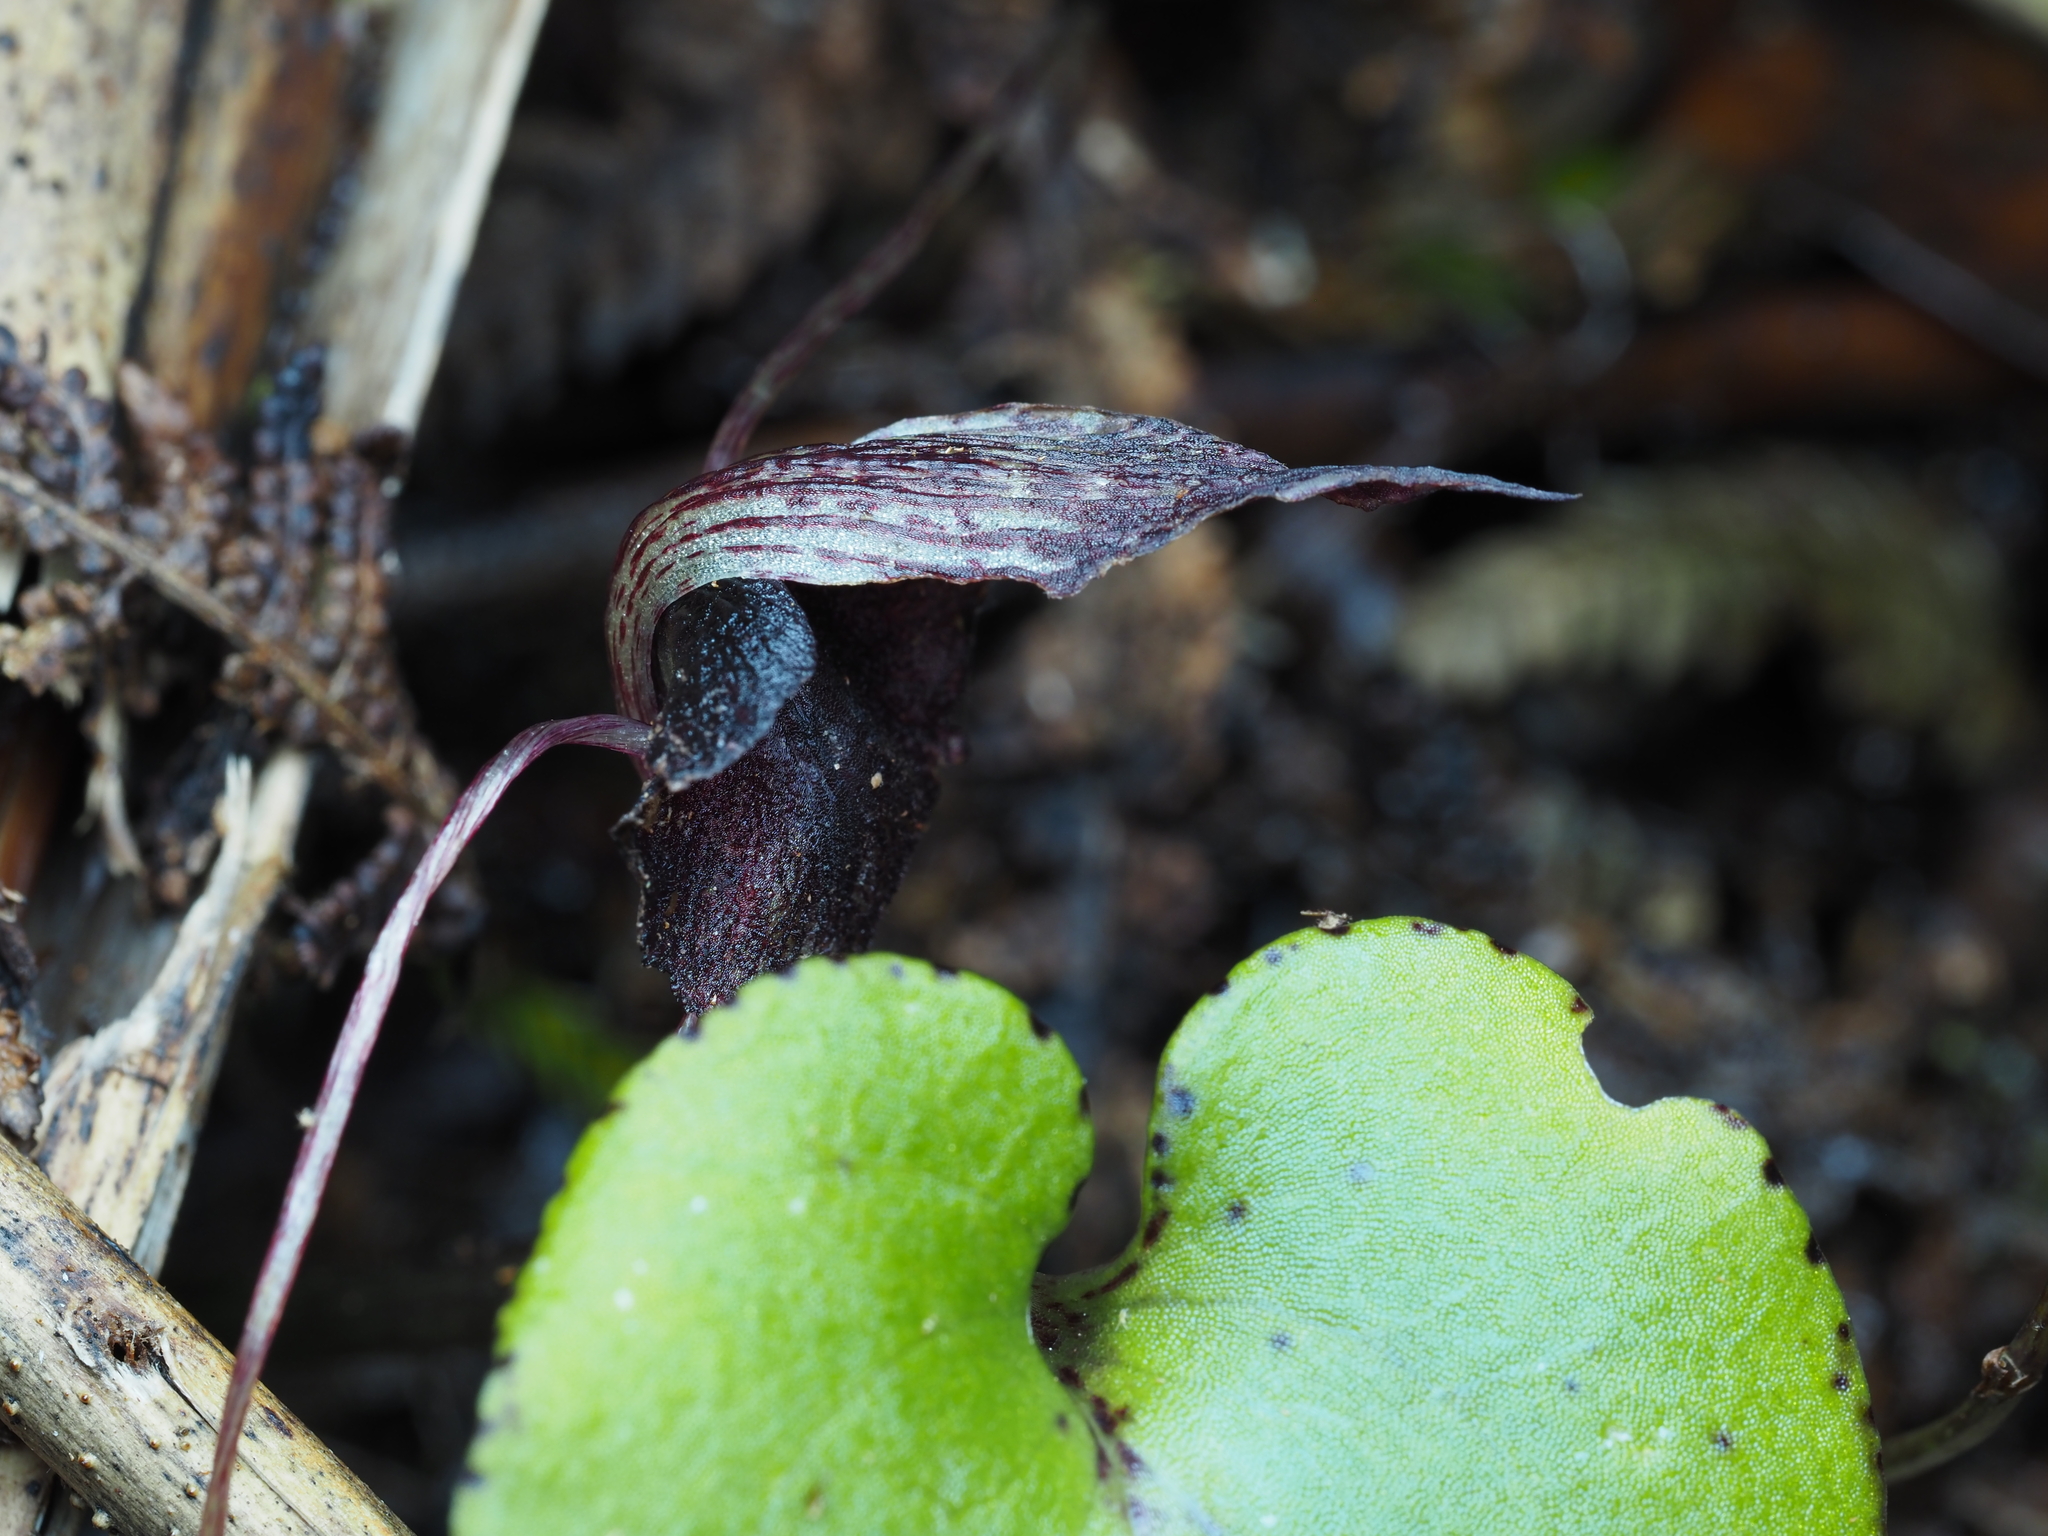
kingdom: Plantae
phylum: Tracheophyta
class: Liliopsida
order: Asparagales
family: Orchidaceae
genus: Corybas
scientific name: Corybas iridescens
